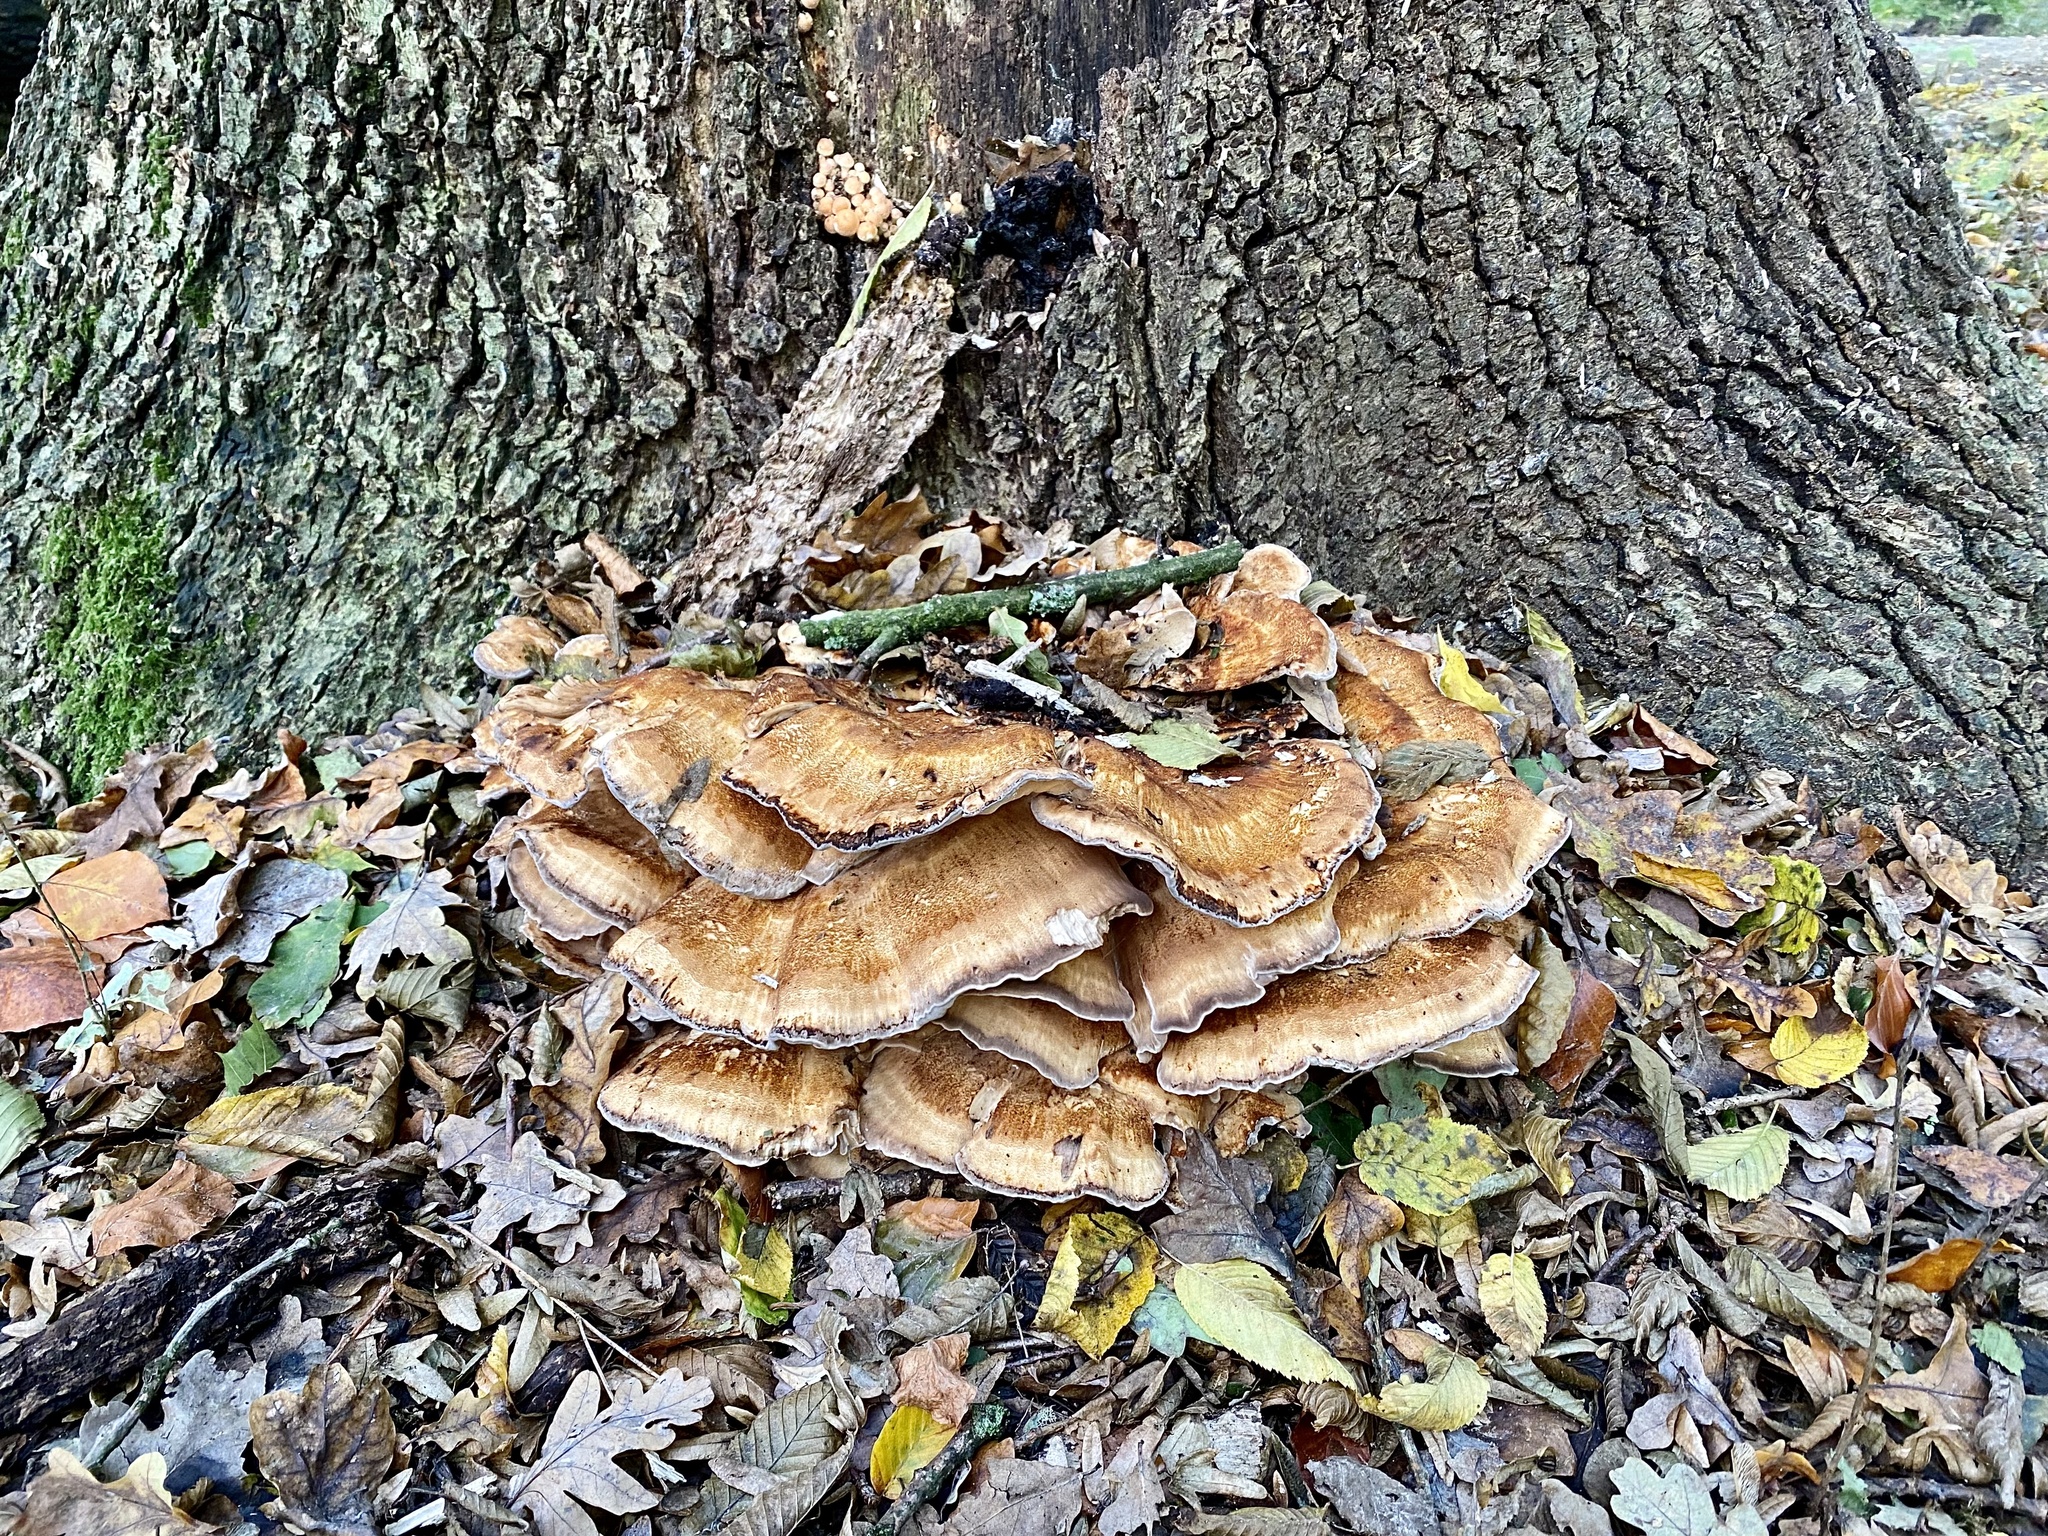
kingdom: Fungi
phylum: Basidiomycota
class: Agaricomycetes
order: Polyporales
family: Meripilaceae
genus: Meripilus
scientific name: Meripilus giganteus
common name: Giant polypore
